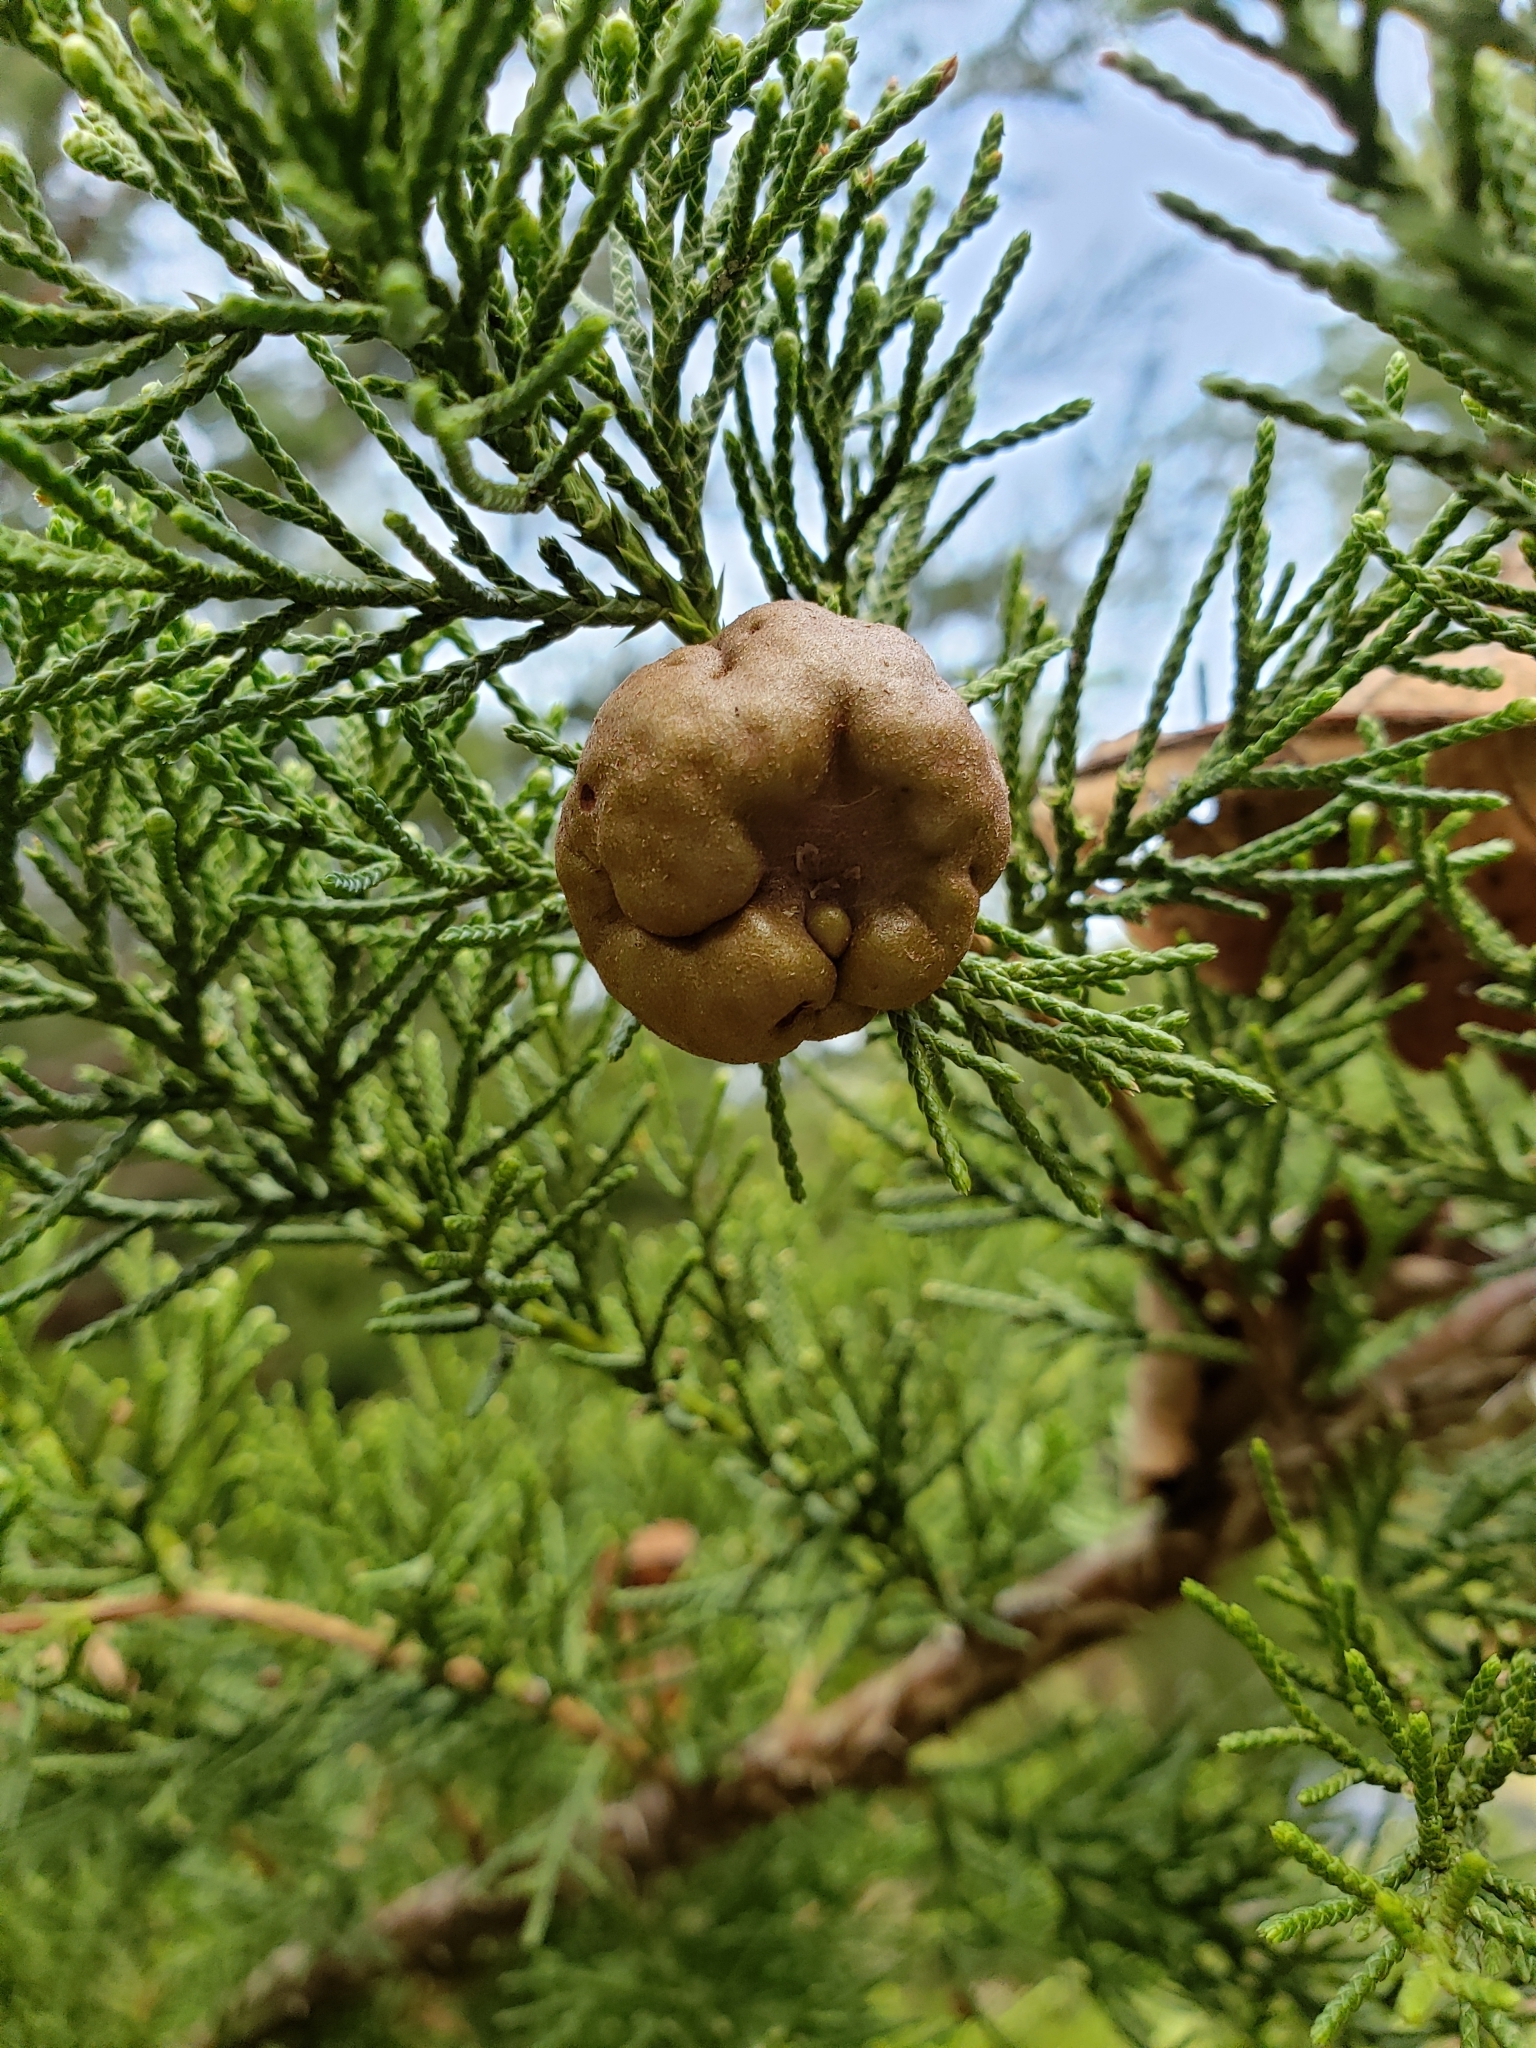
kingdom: Fungi
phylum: Basidiomycota
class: Pucciniomycetes
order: Pucciniales
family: Gymnosporangiaceae
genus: Gymnosporangium
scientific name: Gymnosporangium juniperi-virginianae
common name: Juniper-apple rust
